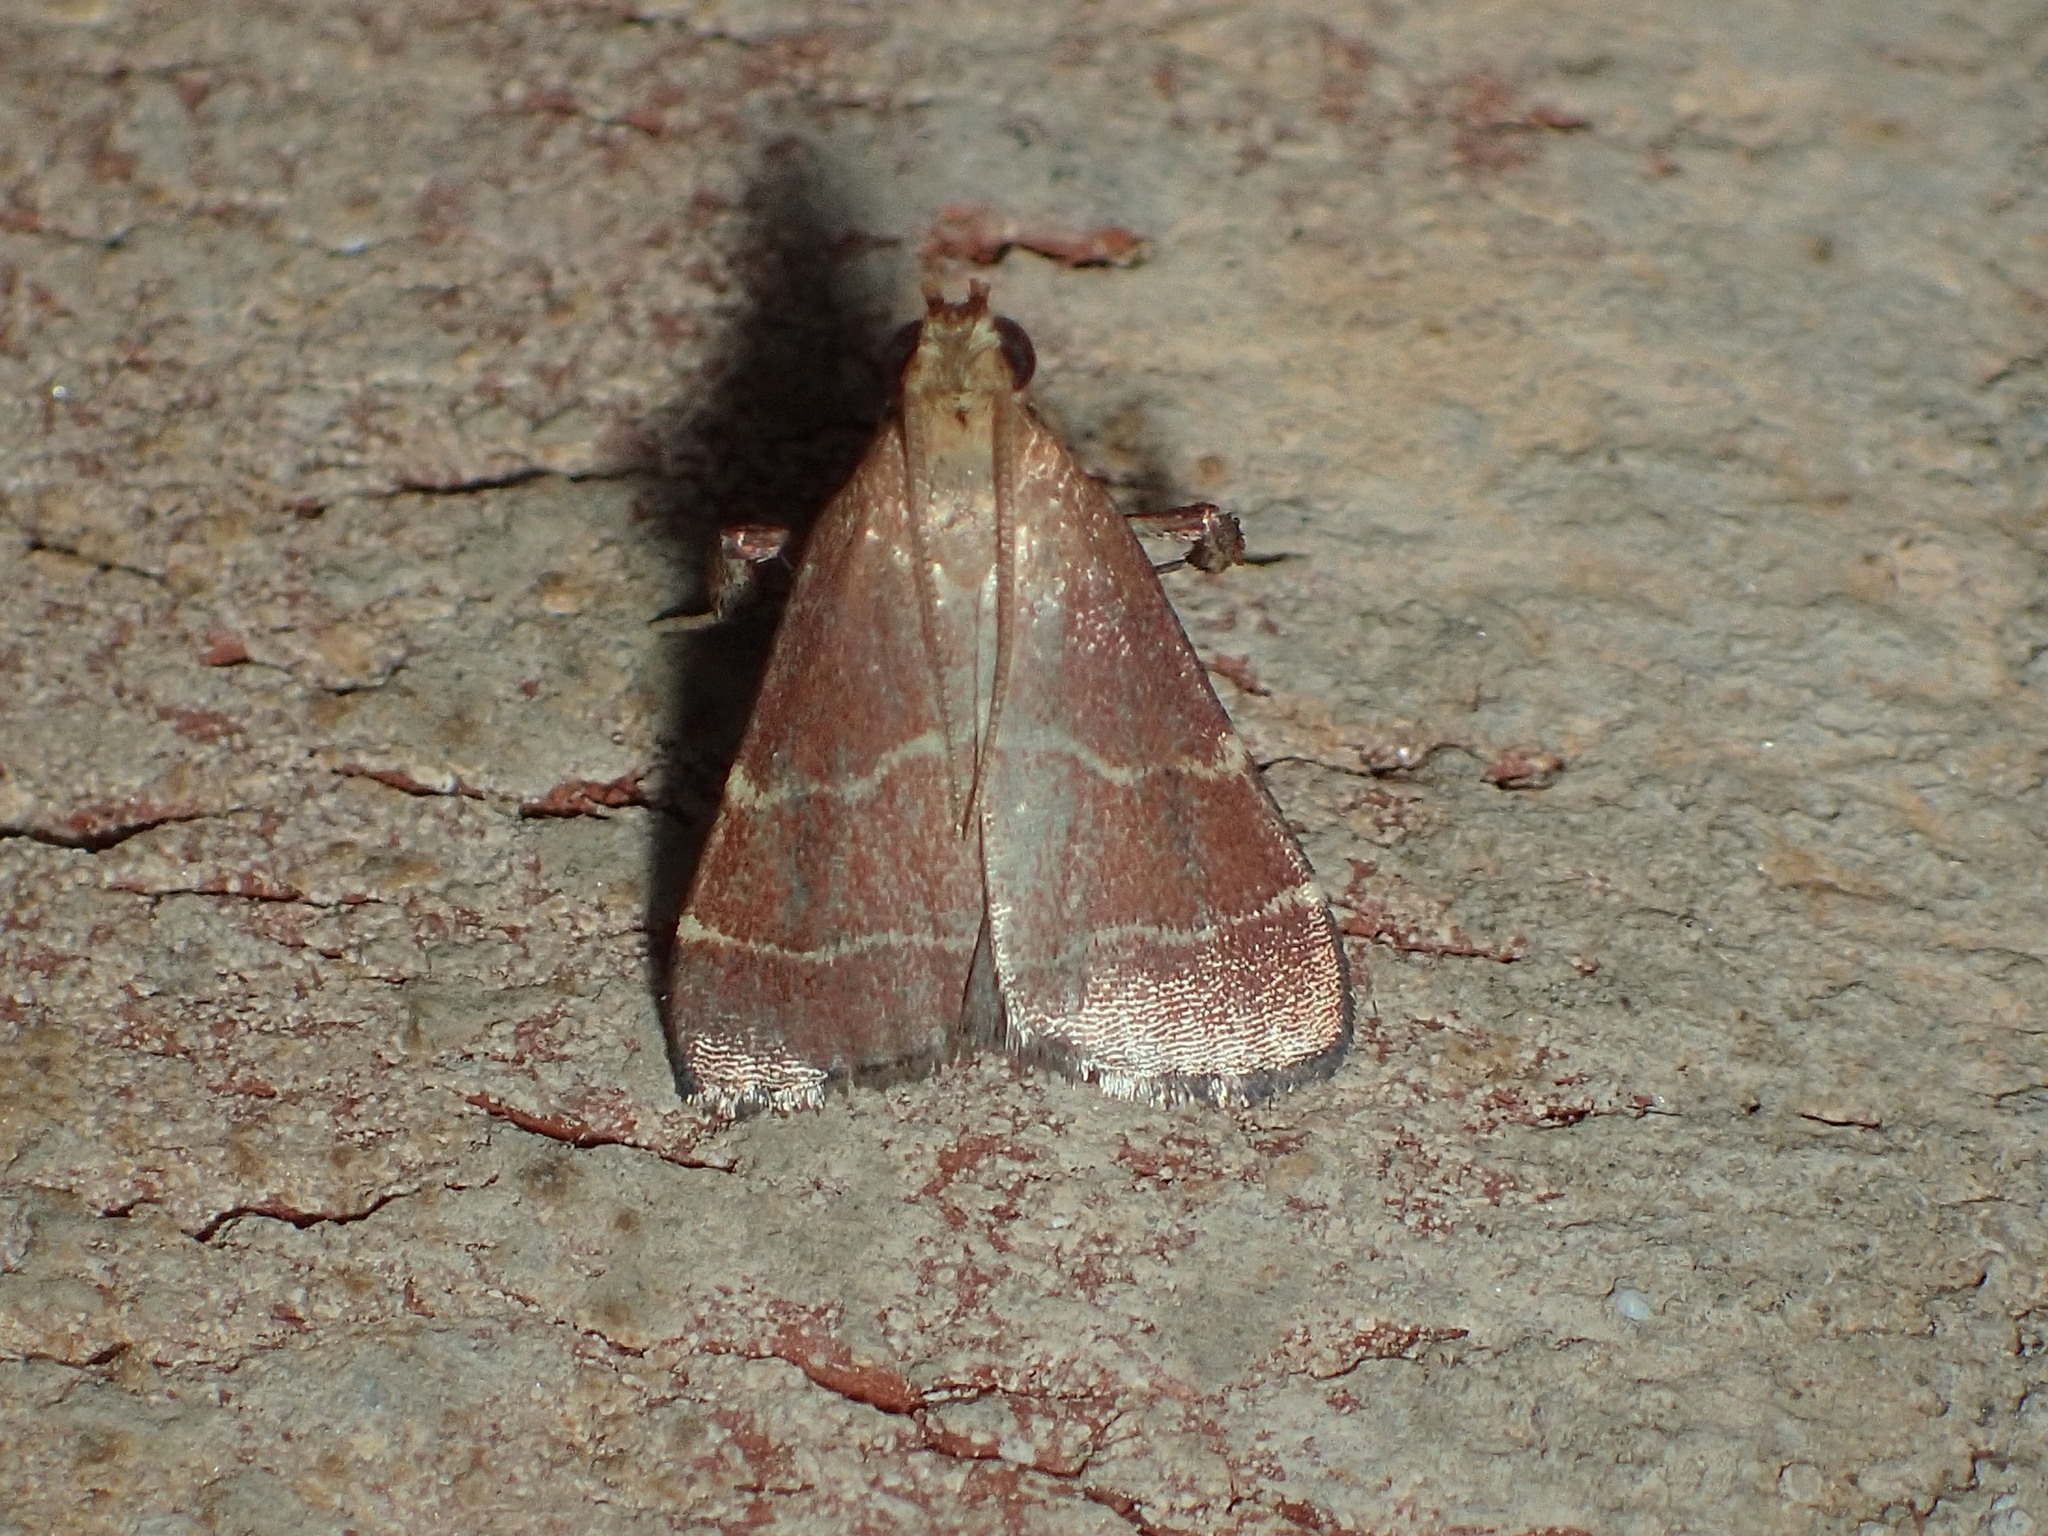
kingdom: Animalia
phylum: Arthropoda
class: Insecta
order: Lepidoptera
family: Pyralidae
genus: Arta
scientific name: Arta statalis
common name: Posturing arta moth
